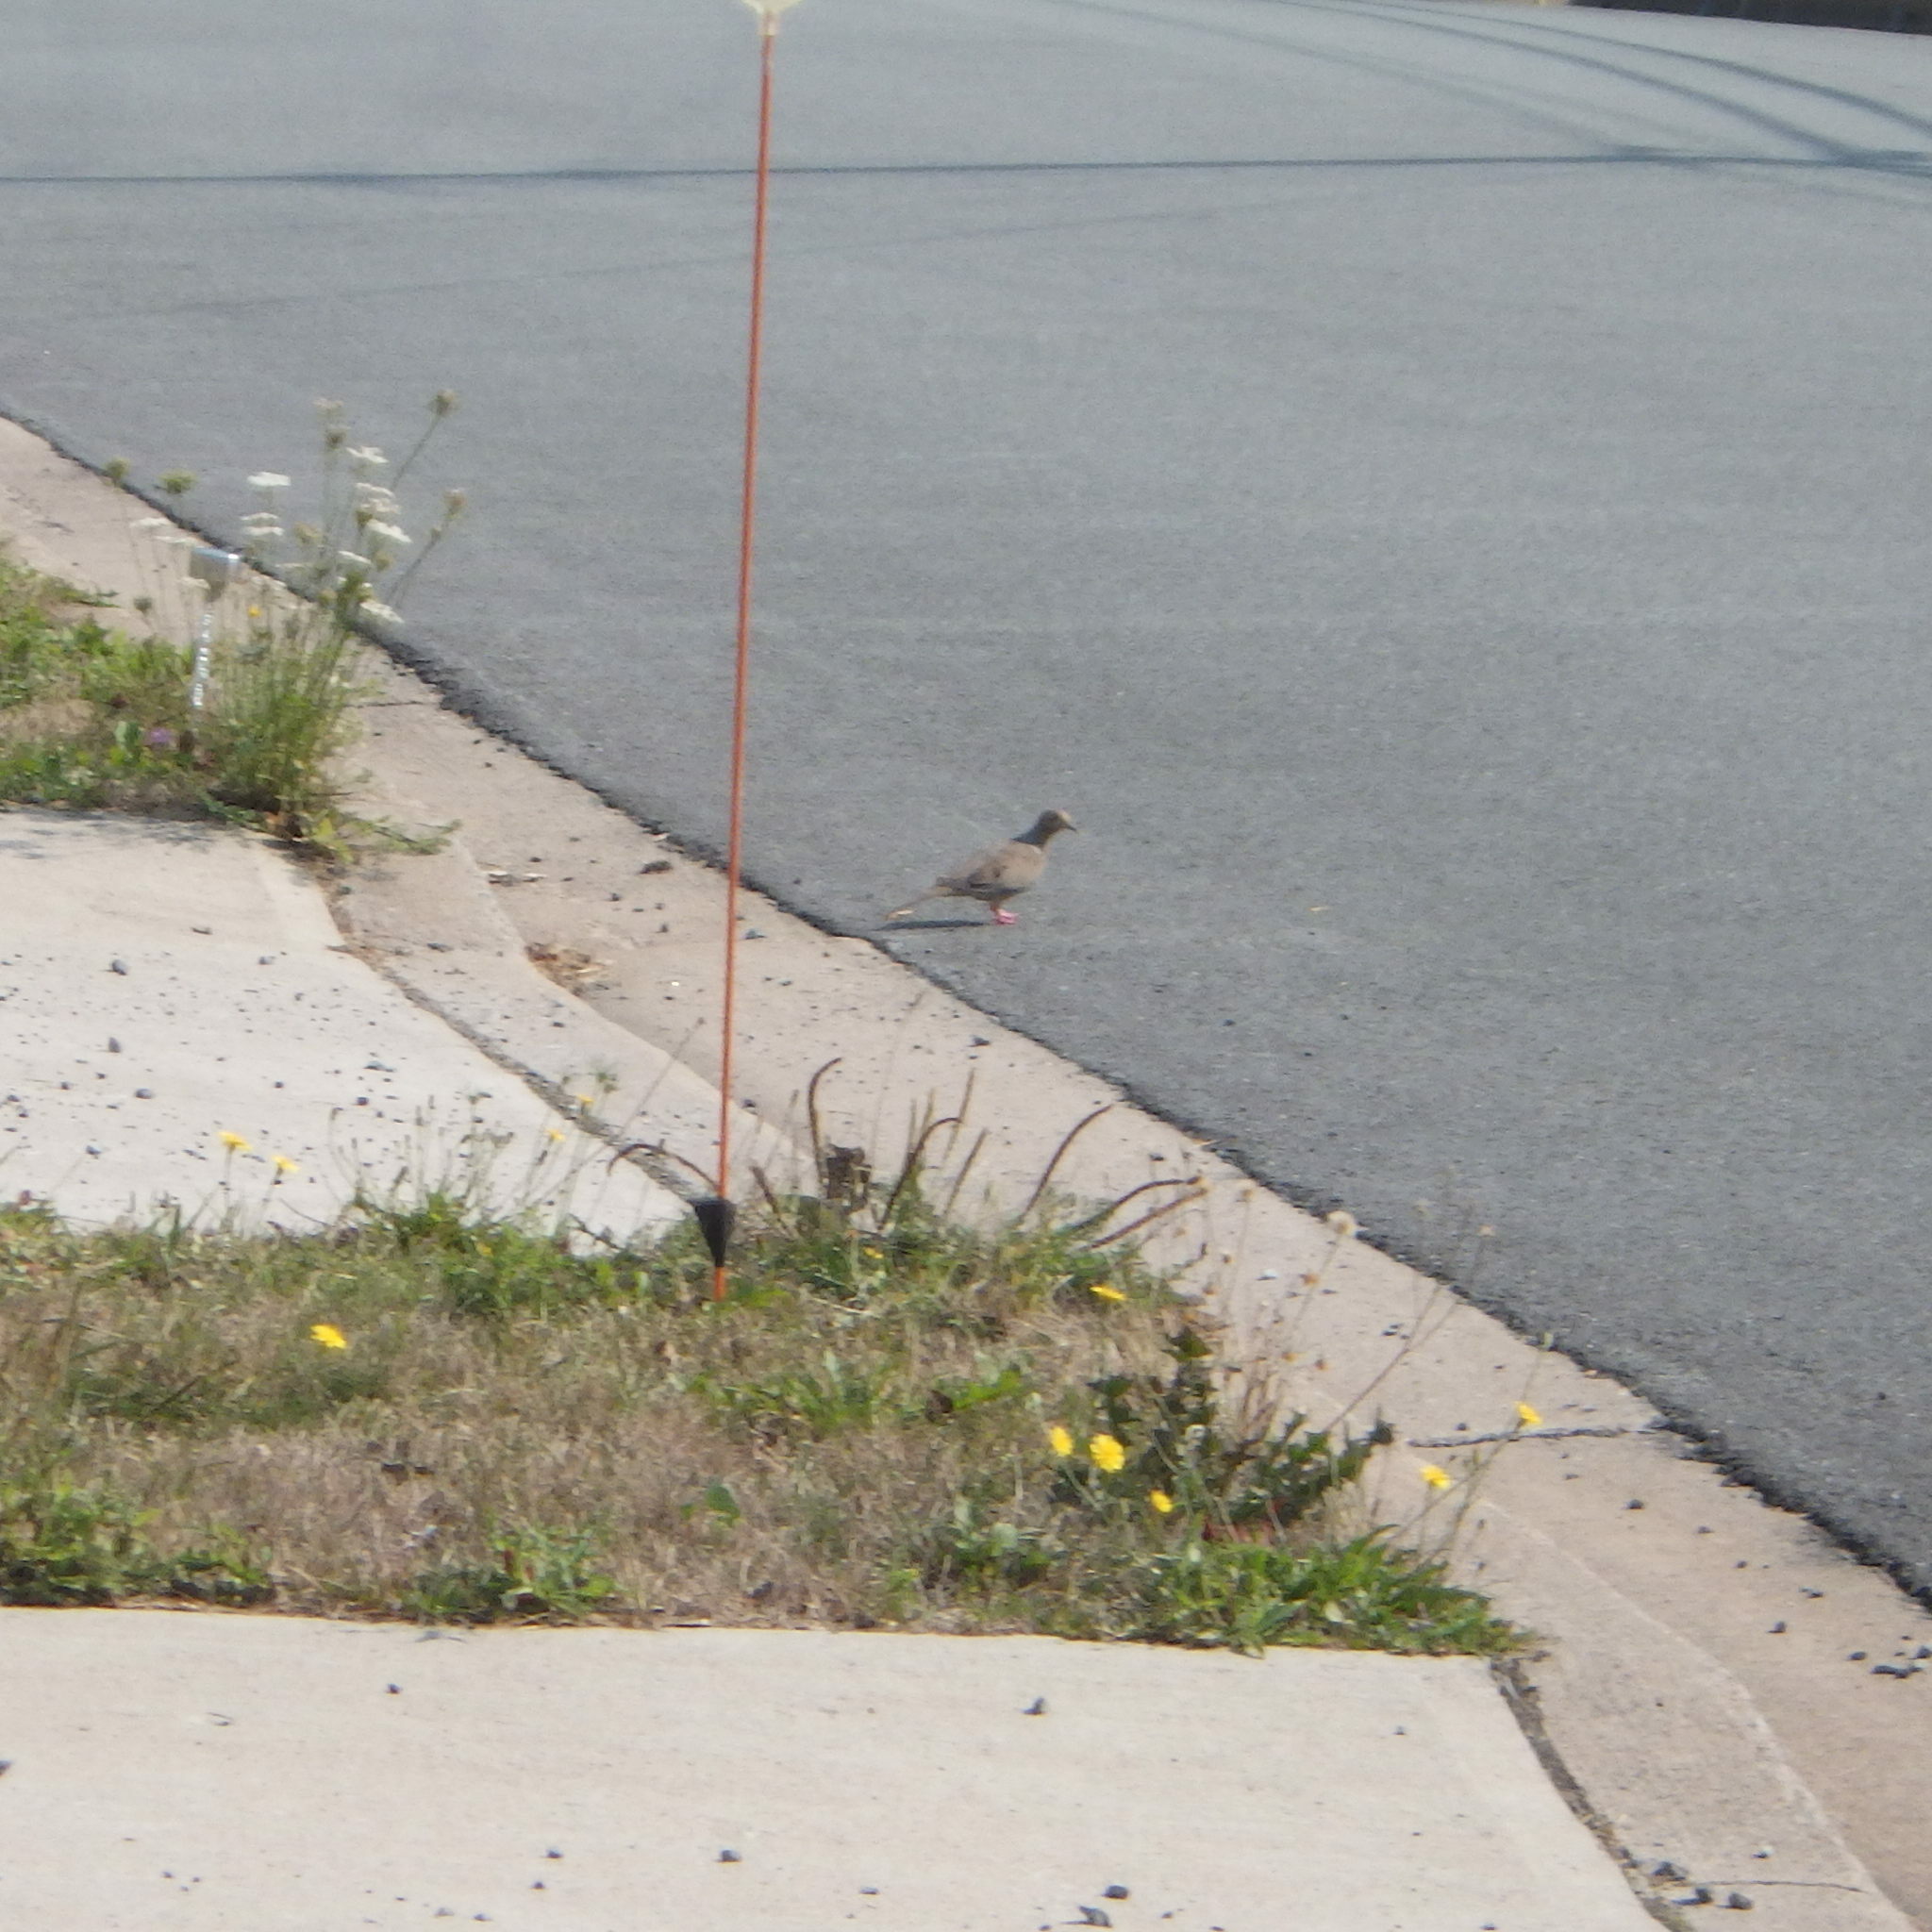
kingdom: Animalia
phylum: Chordata
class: Aves
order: Columbiformes
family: Columbidae
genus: Zenaida
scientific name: Zenaida macroura
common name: Mourning dove
